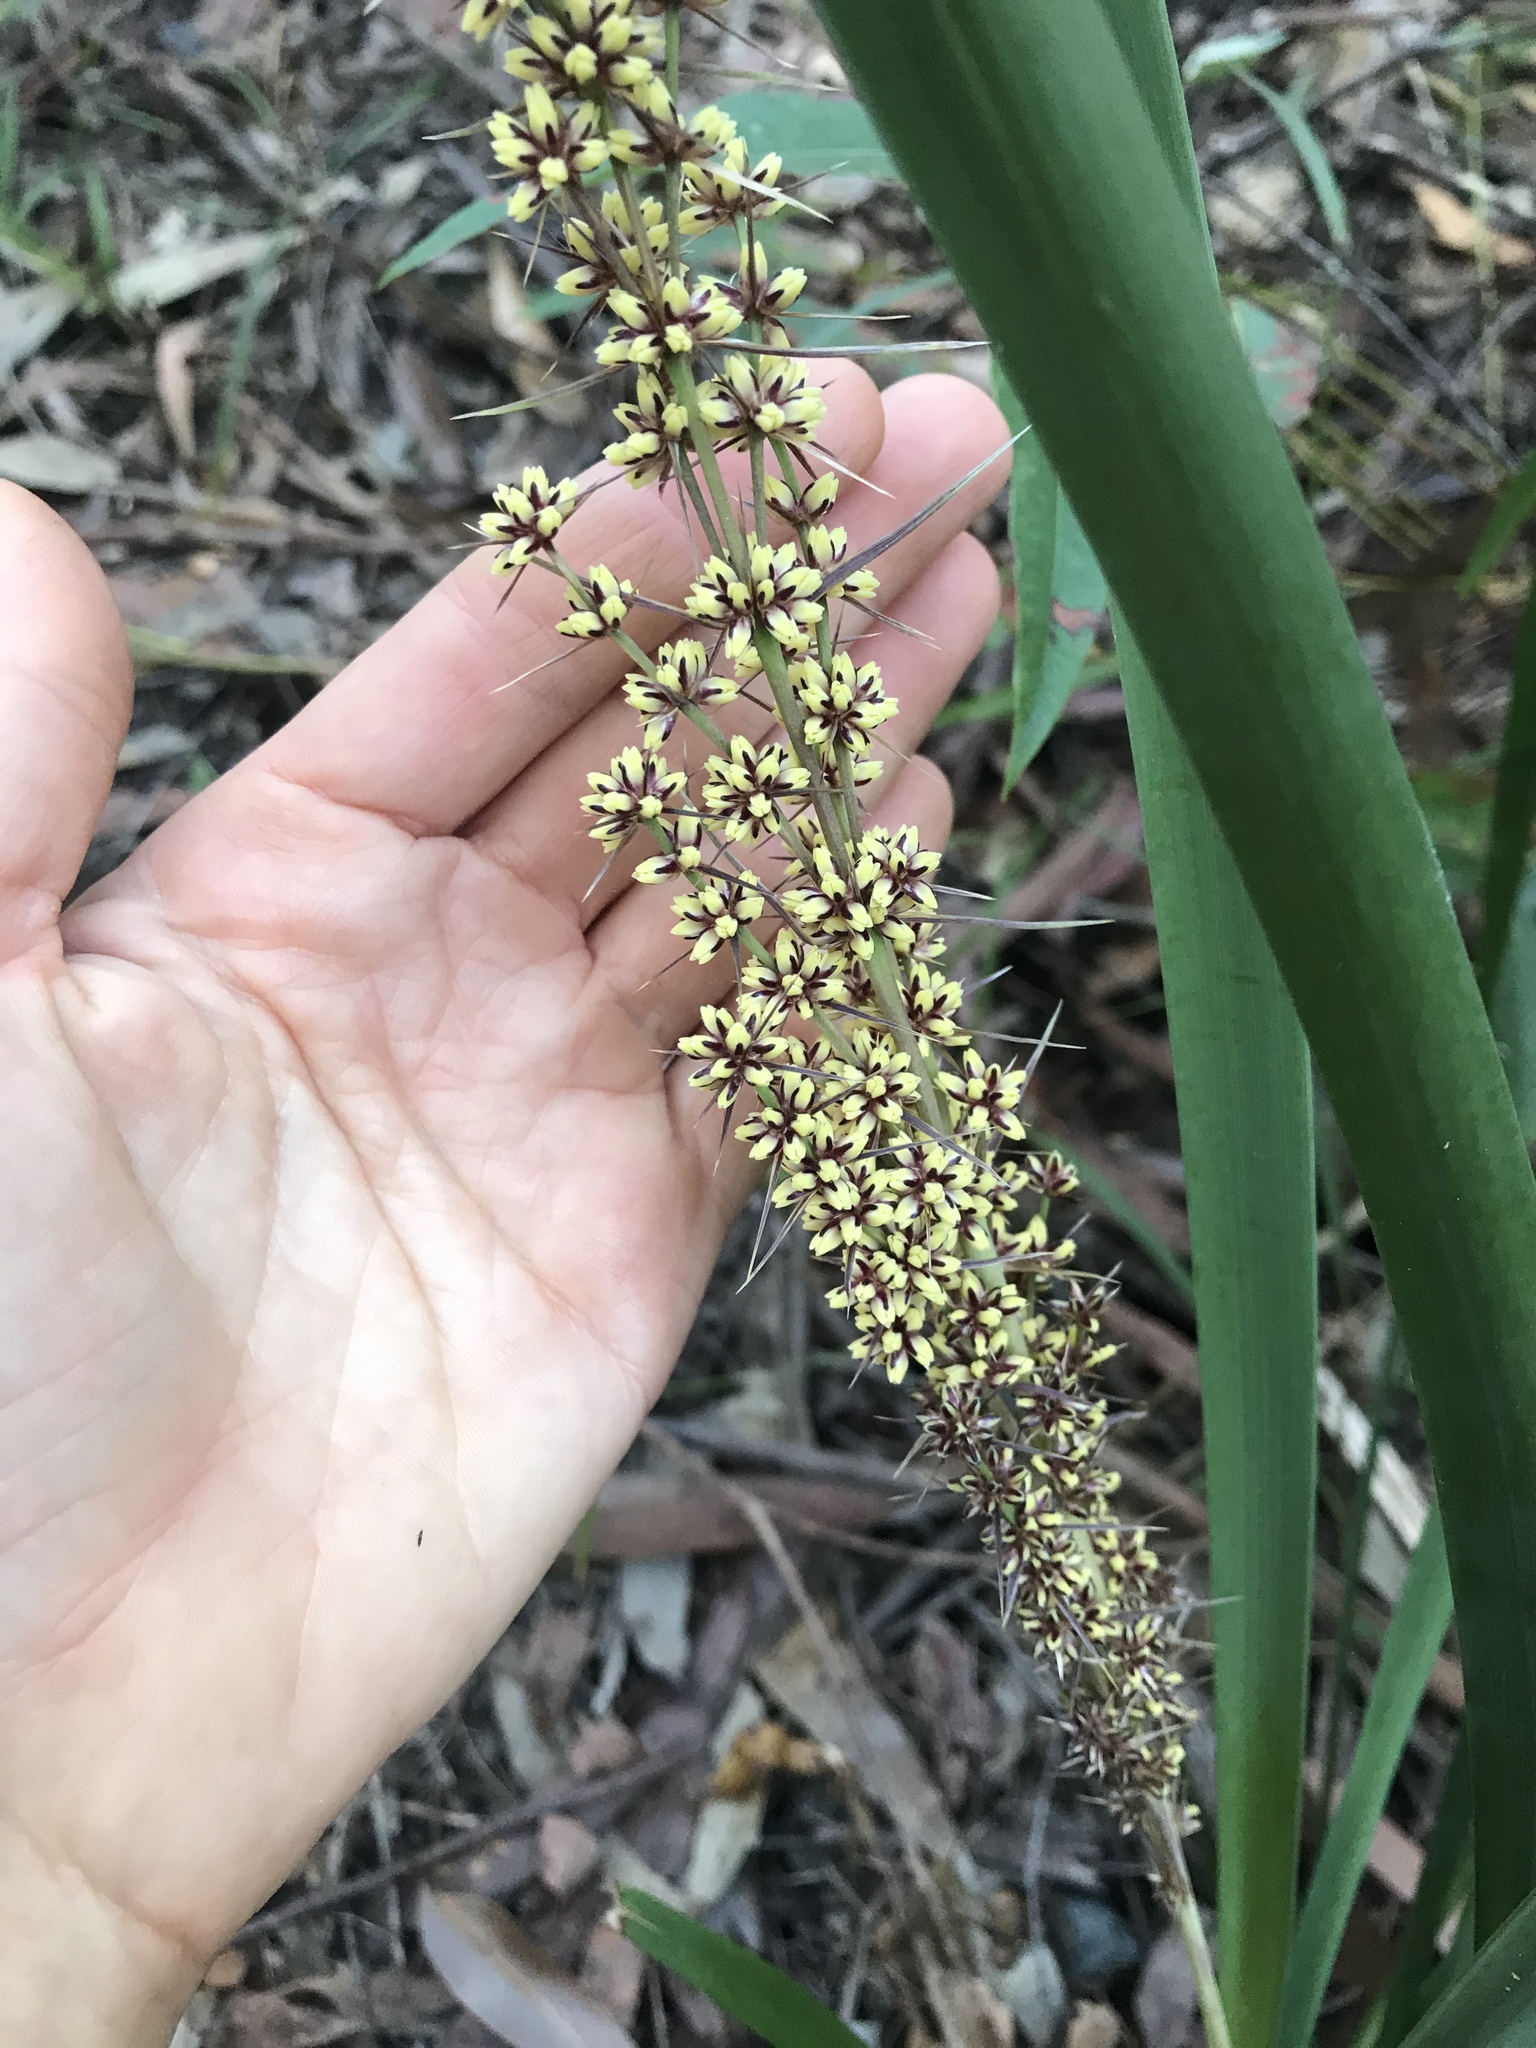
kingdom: Plantae
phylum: Tracheophyta
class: Liliopsida
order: Asparagales
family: Asparagaceae
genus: Lomandra
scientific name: Lomandra longifolia
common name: Longleaf mat-rush
